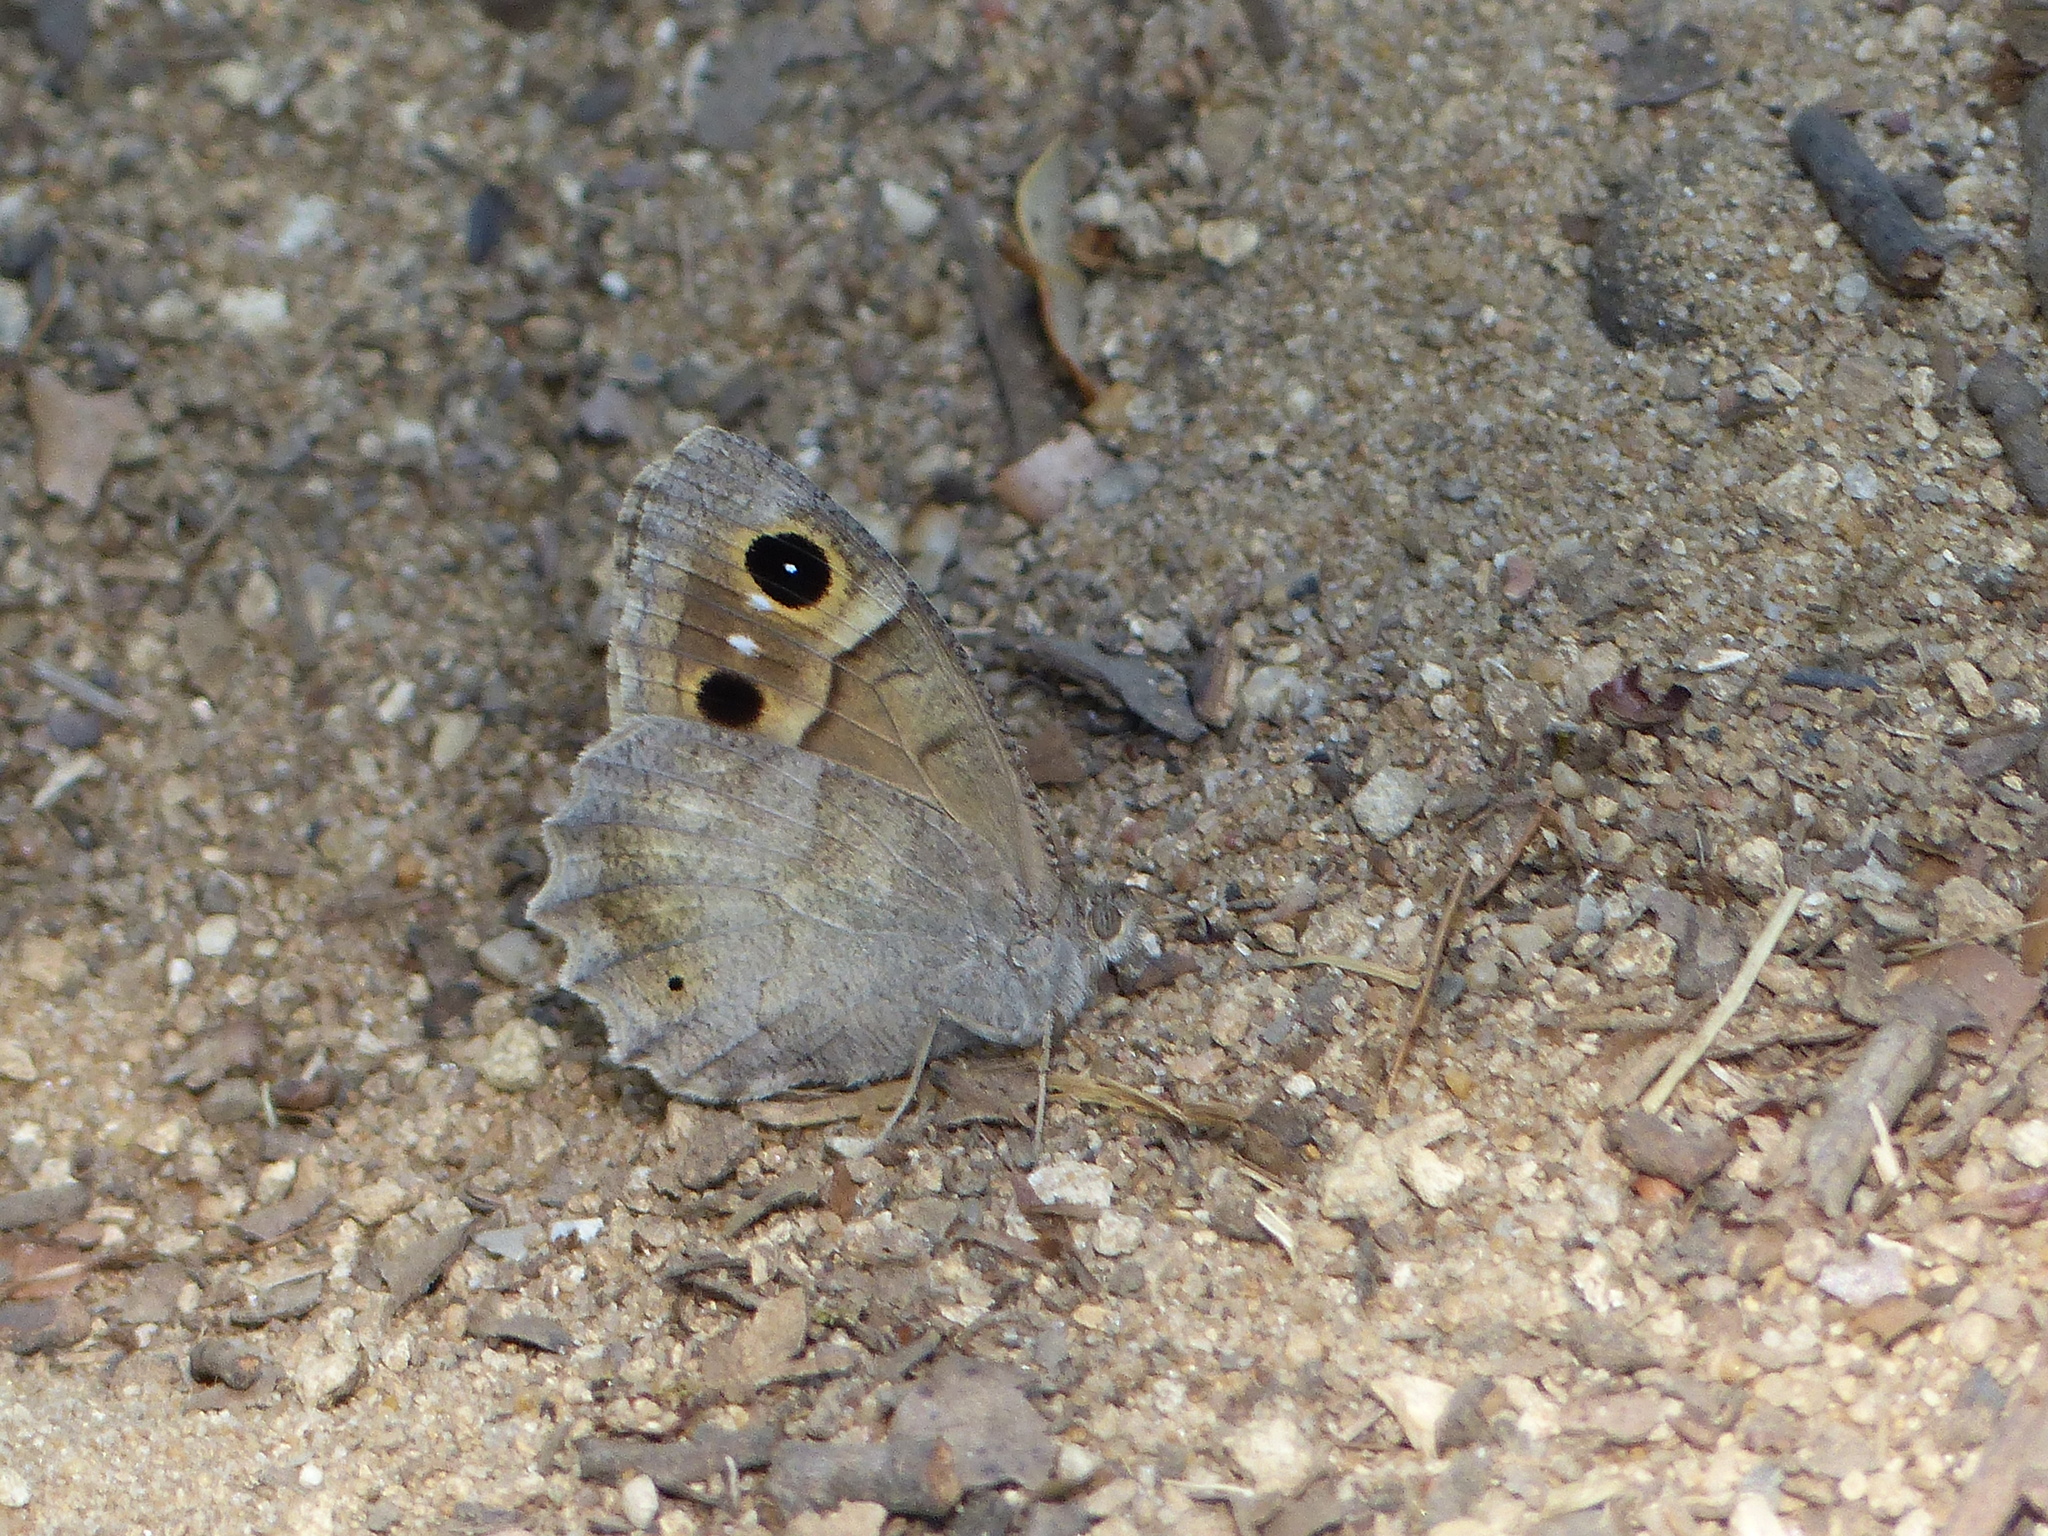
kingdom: Animalia
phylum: Arthropoda
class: Insecta
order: Lepidoptera
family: Nymphalidae
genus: Hipparchia
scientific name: Hipparchia statilinus
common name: Tree grayling
